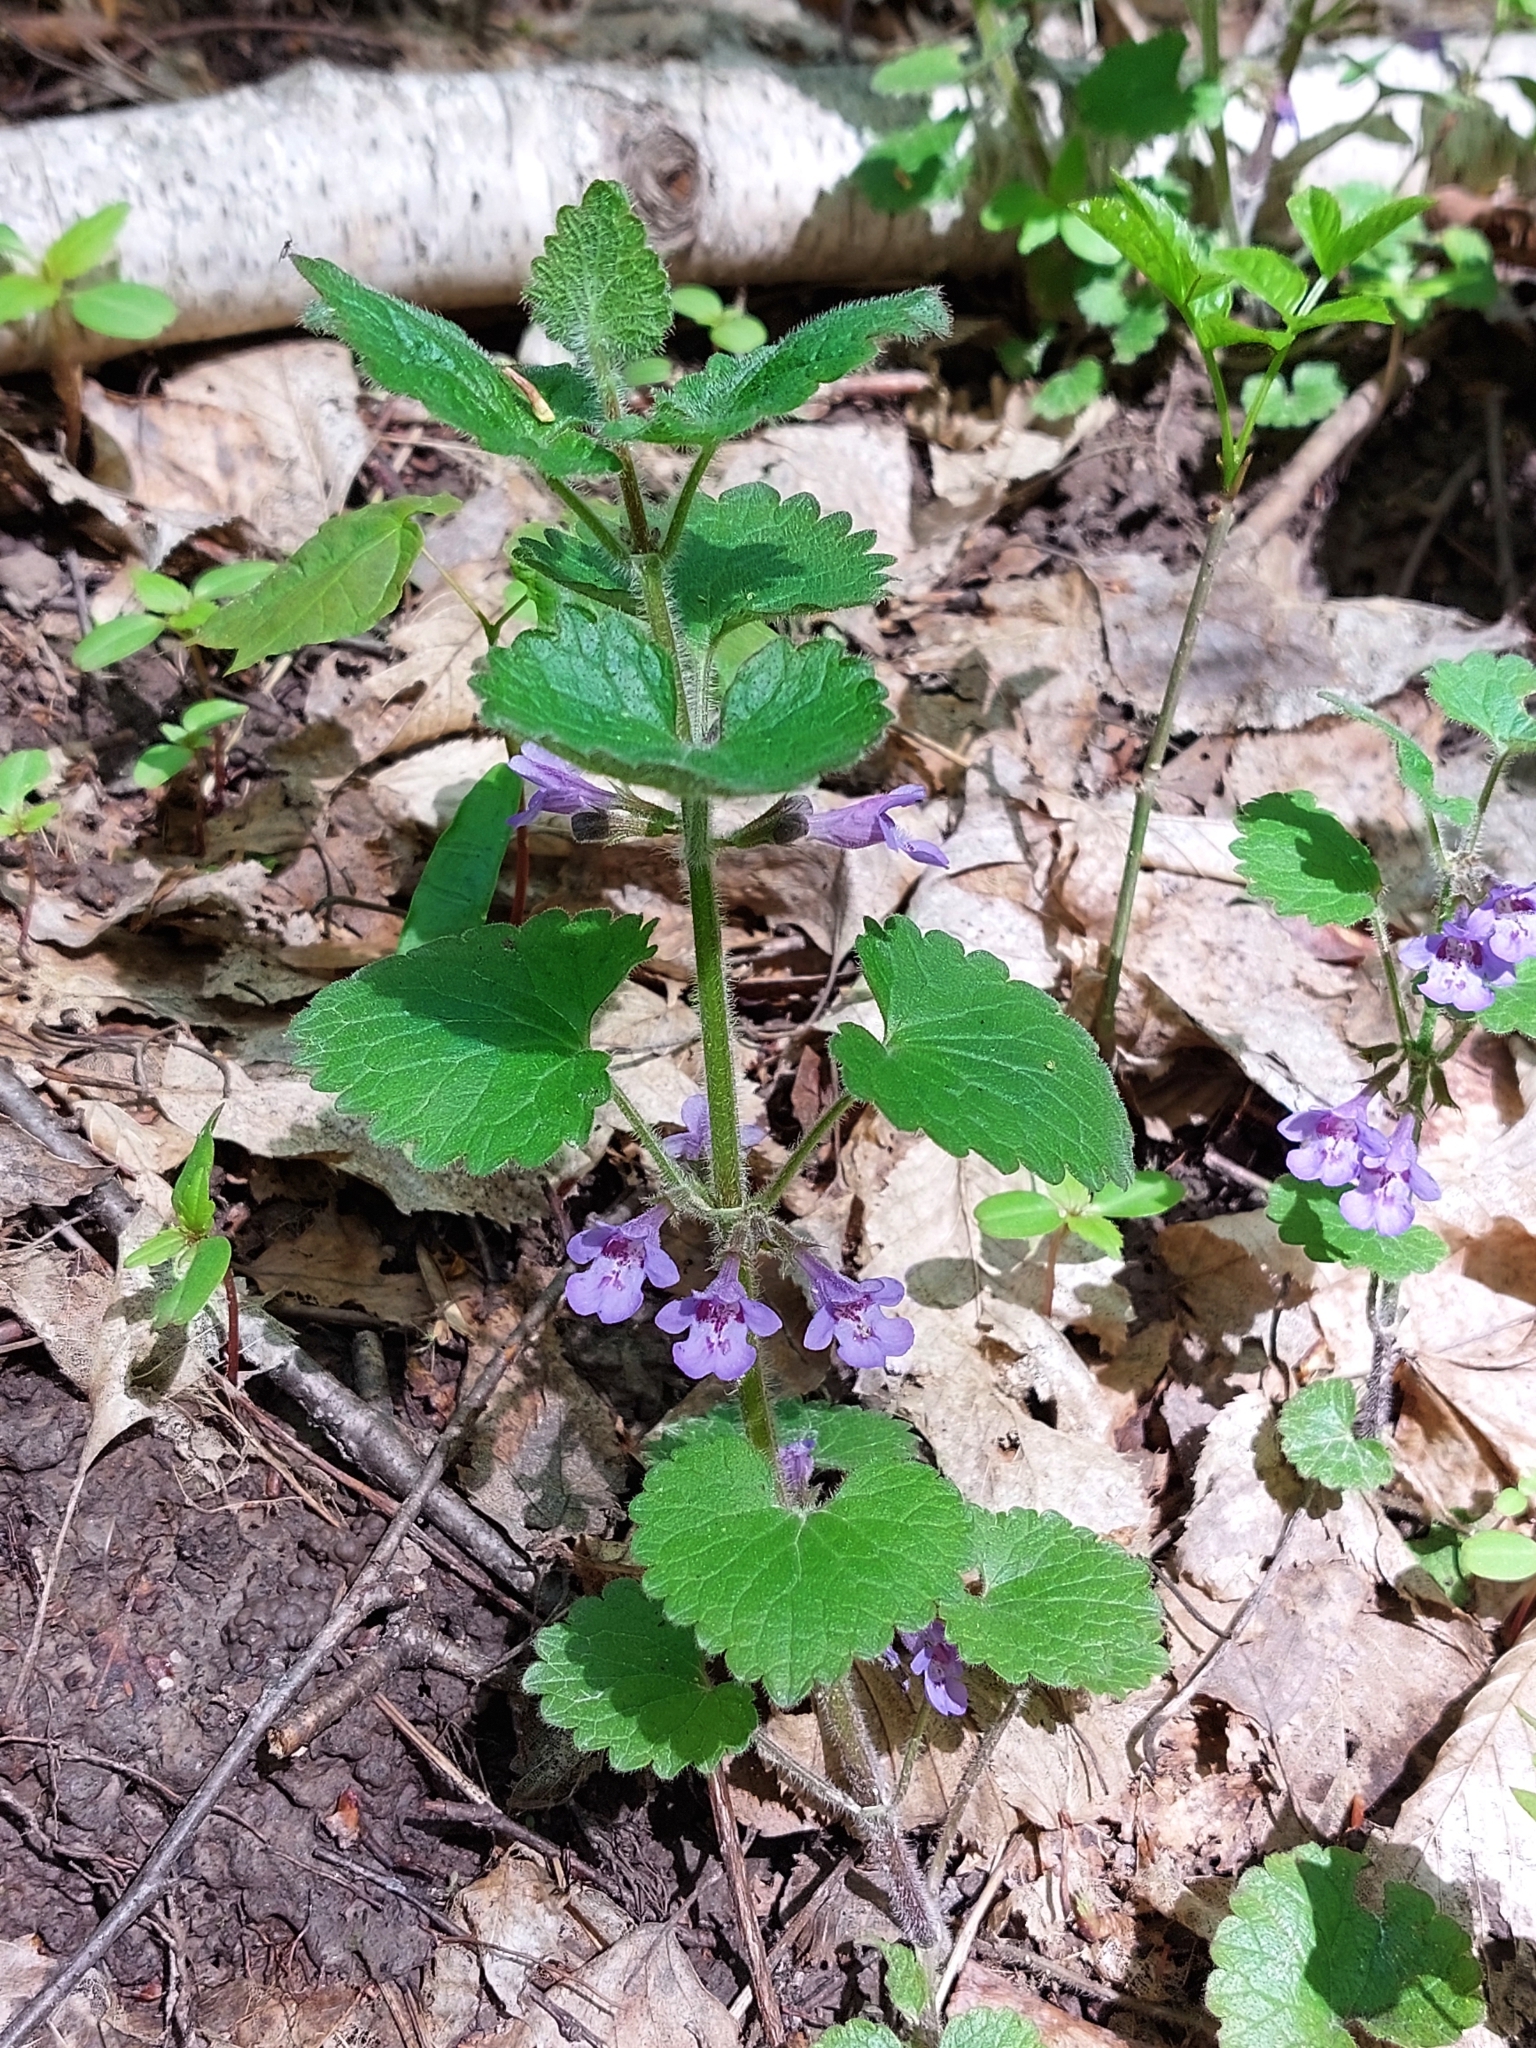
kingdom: Plantae
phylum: Tracheophyta
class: Magnoliopsida
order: Lamiales
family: Lamiaceae
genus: Glechoma
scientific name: Glechoma hirsuta
